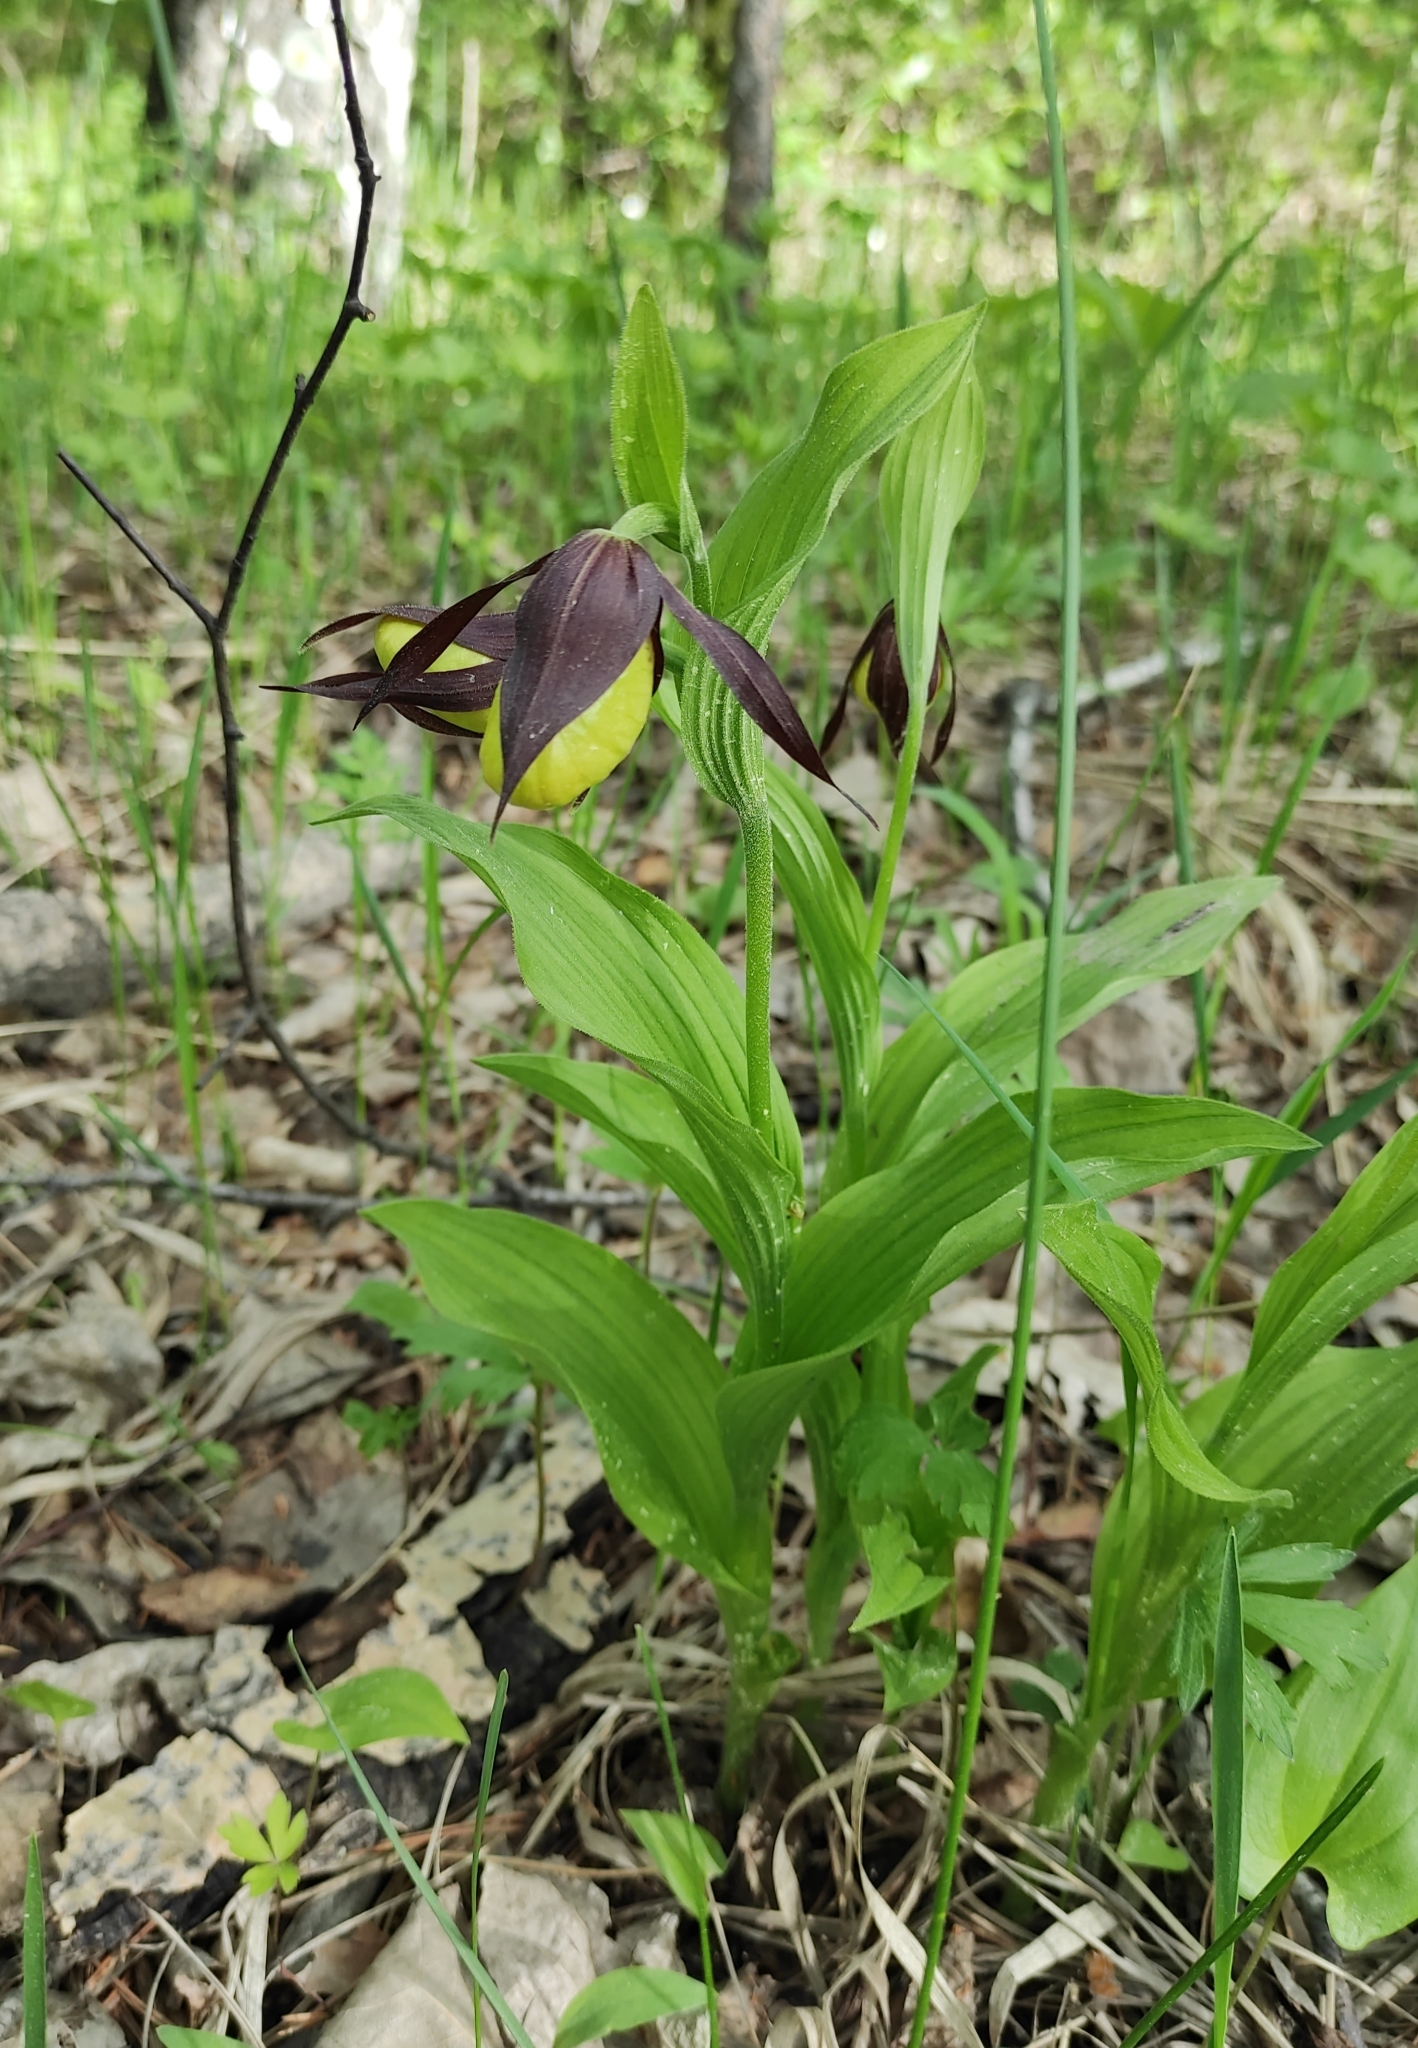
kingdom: Plantae
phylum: Tracheophyta
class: Liliopsida
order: Asparagales
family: Orchidaceae
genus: Cypripedium
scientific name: Cypripedium calceolus
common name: Lady's-slipper
